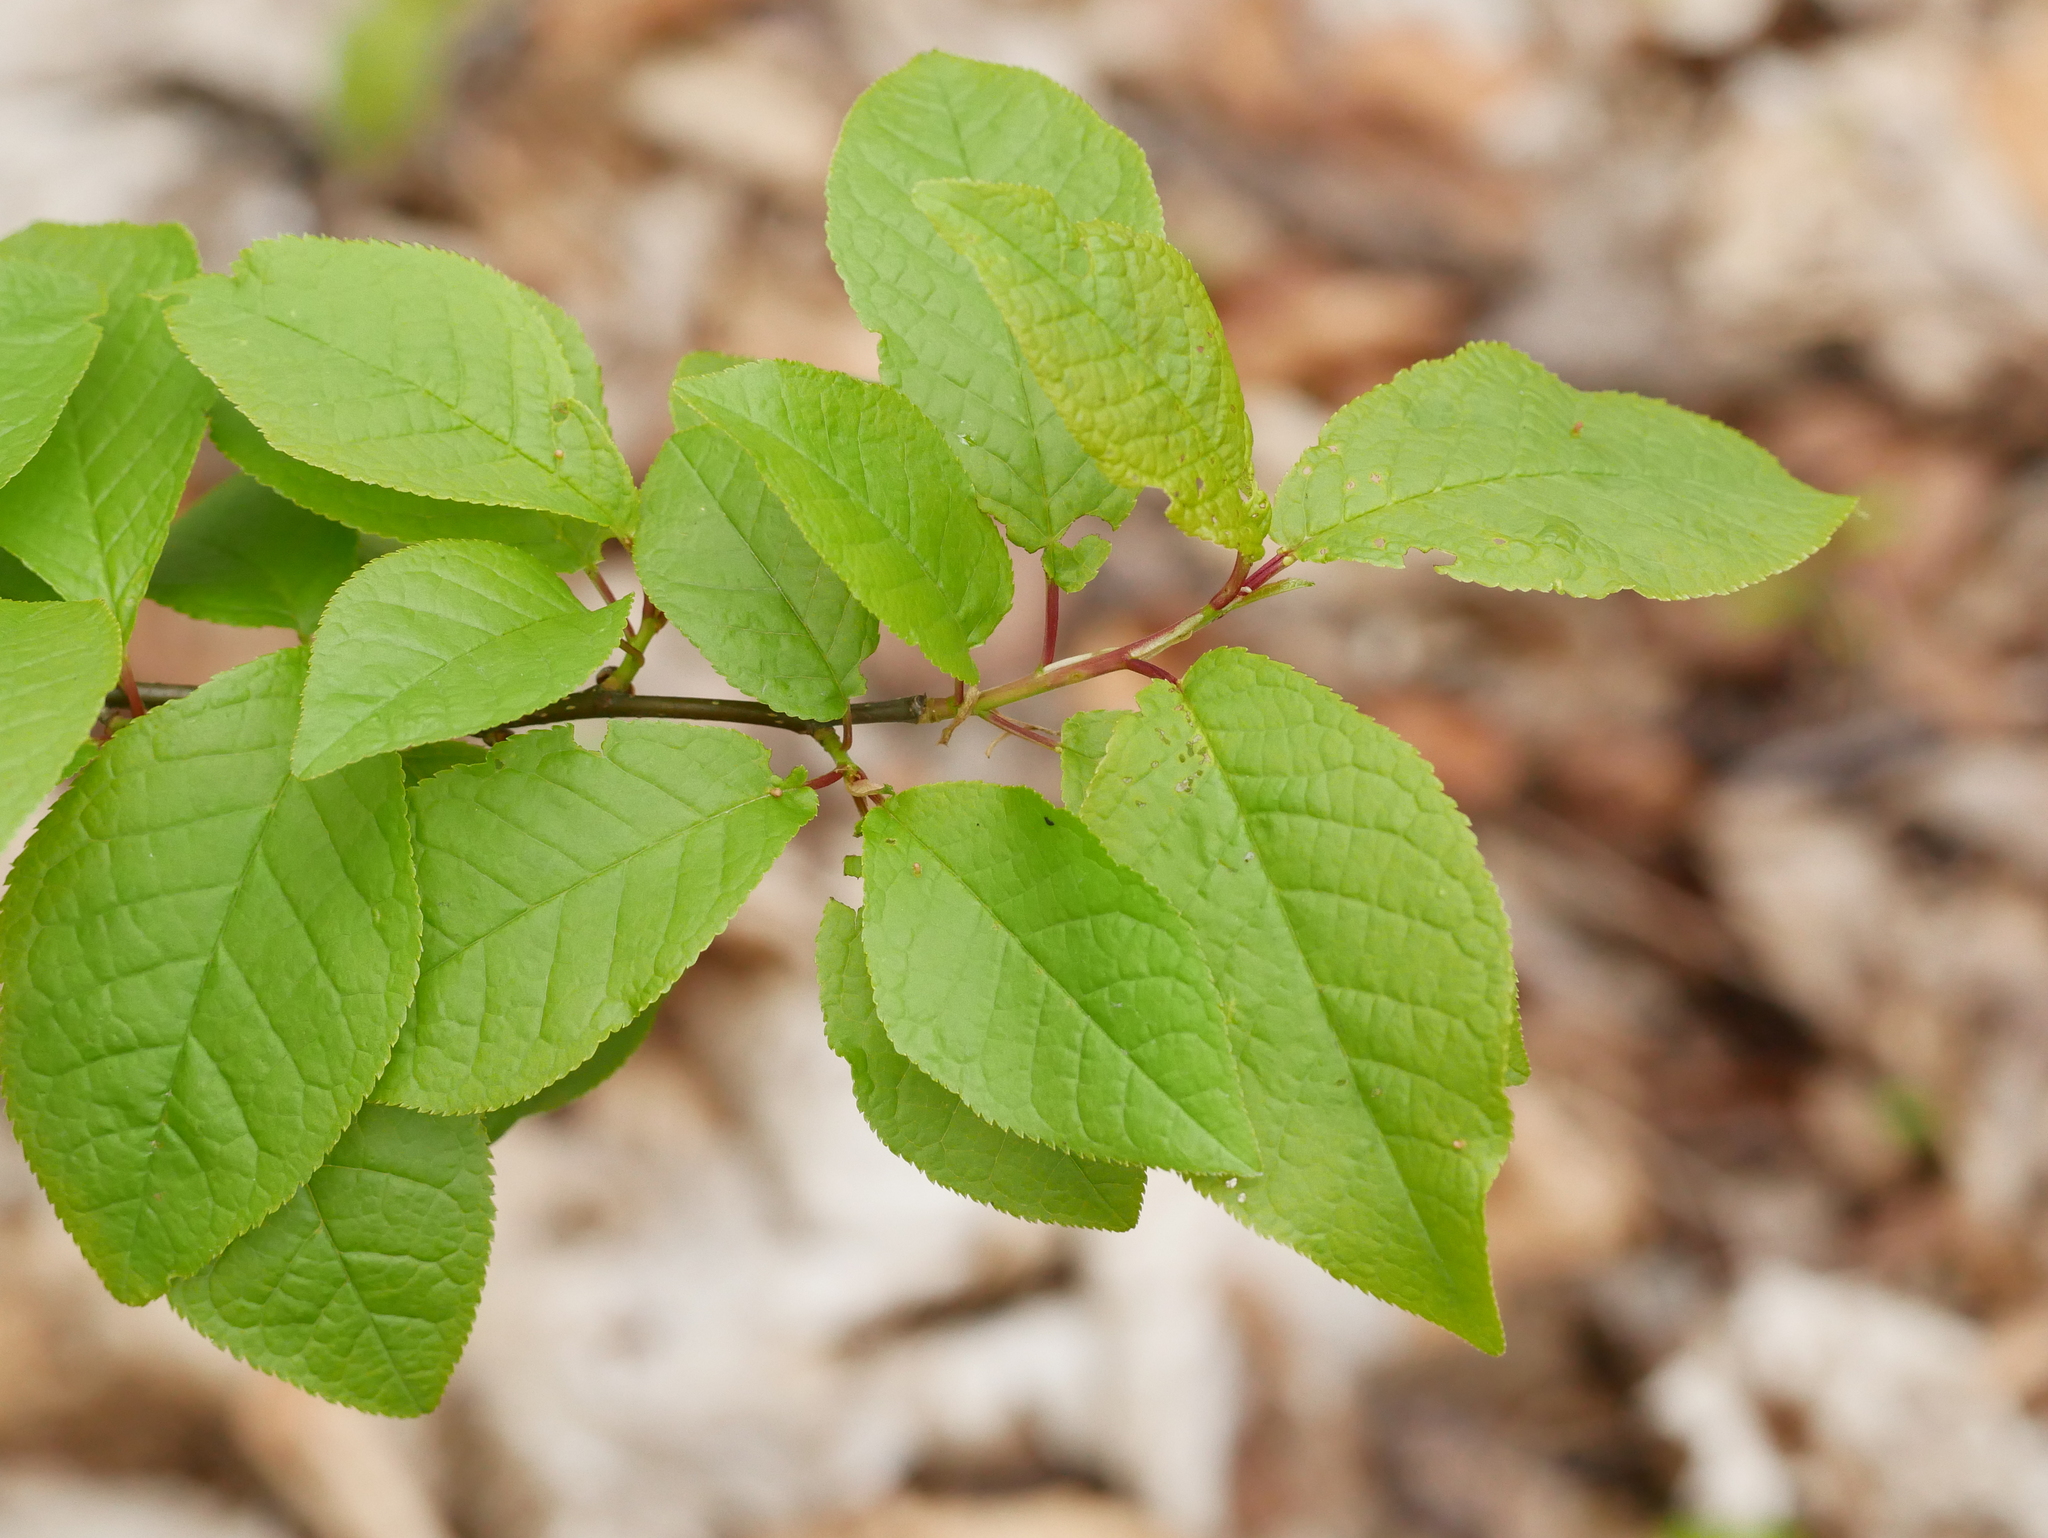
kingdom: Plantae
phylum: Tracheophyta
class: Magnoliopsida
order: Rosales
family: Rosaceae
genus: Prunus
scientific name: Prunus padus
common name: Bird cherry
